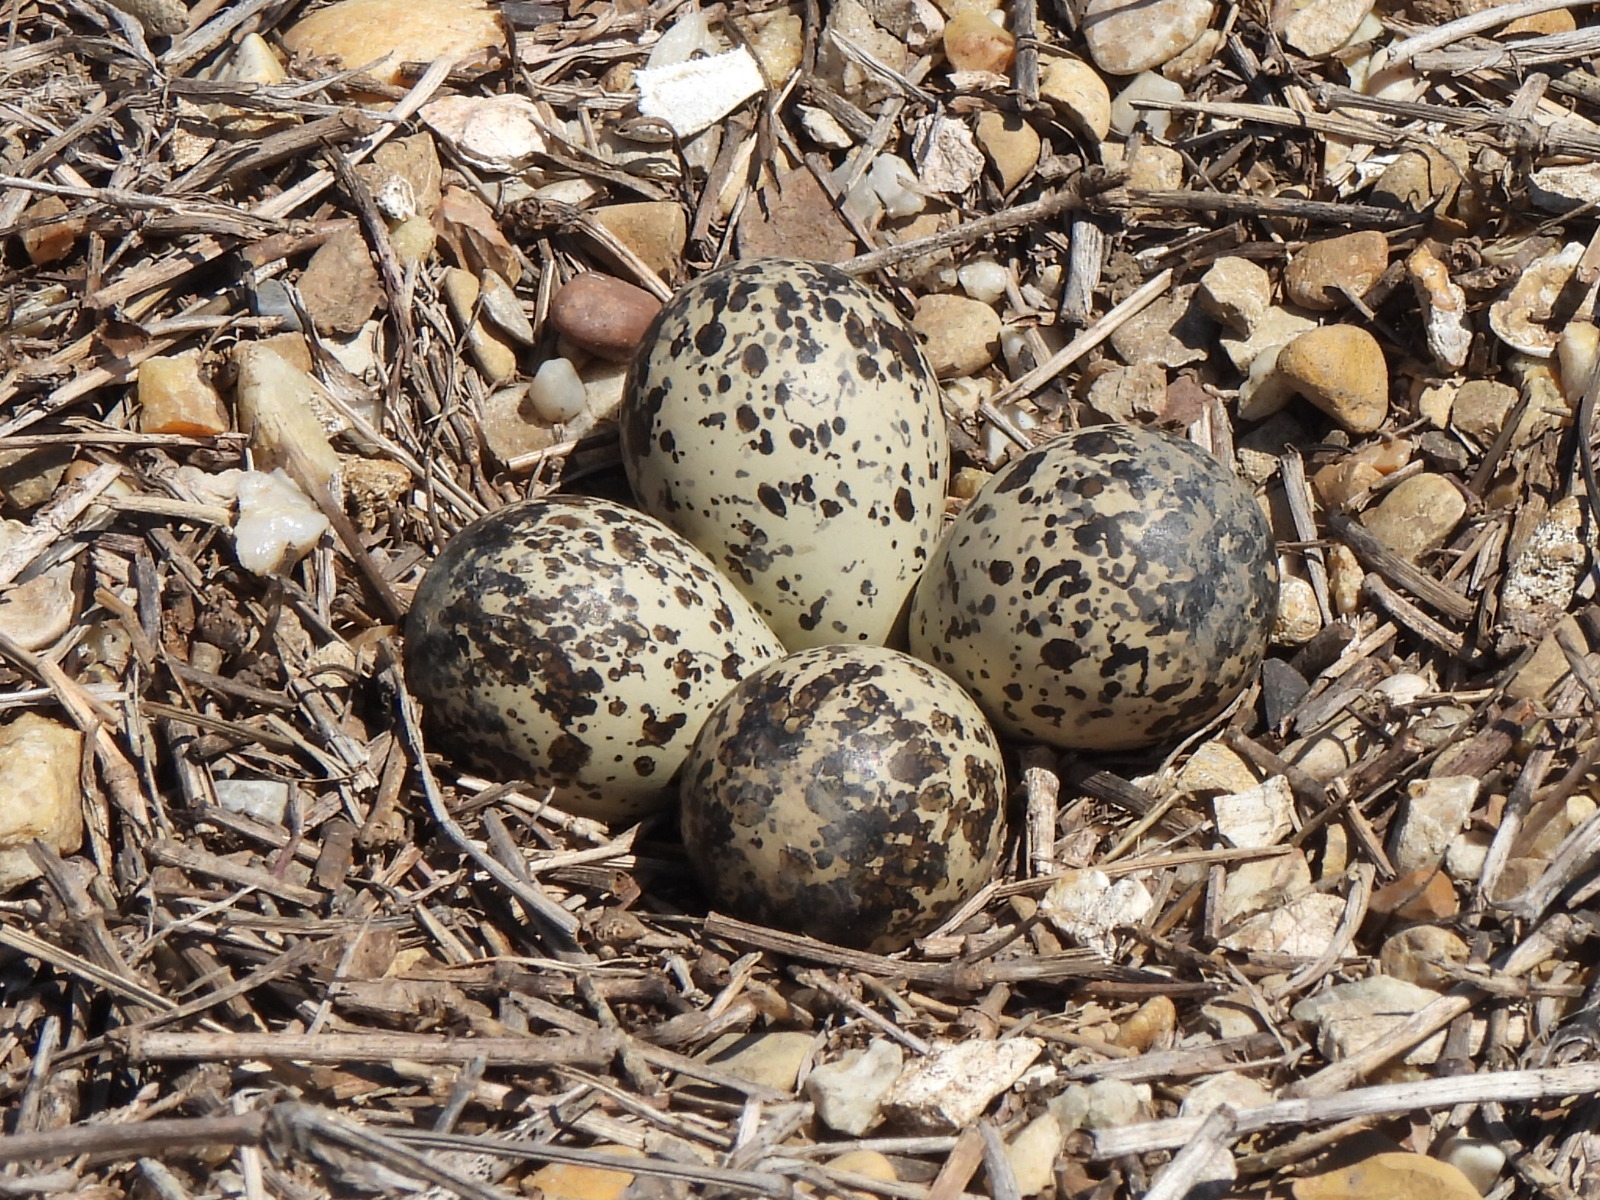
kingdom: Animalia
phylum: Chordata
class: Aves
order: Charadriiformes
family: Charadriidae
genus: Charadrius
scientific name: Charadrius vociferus
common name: Killdeer
